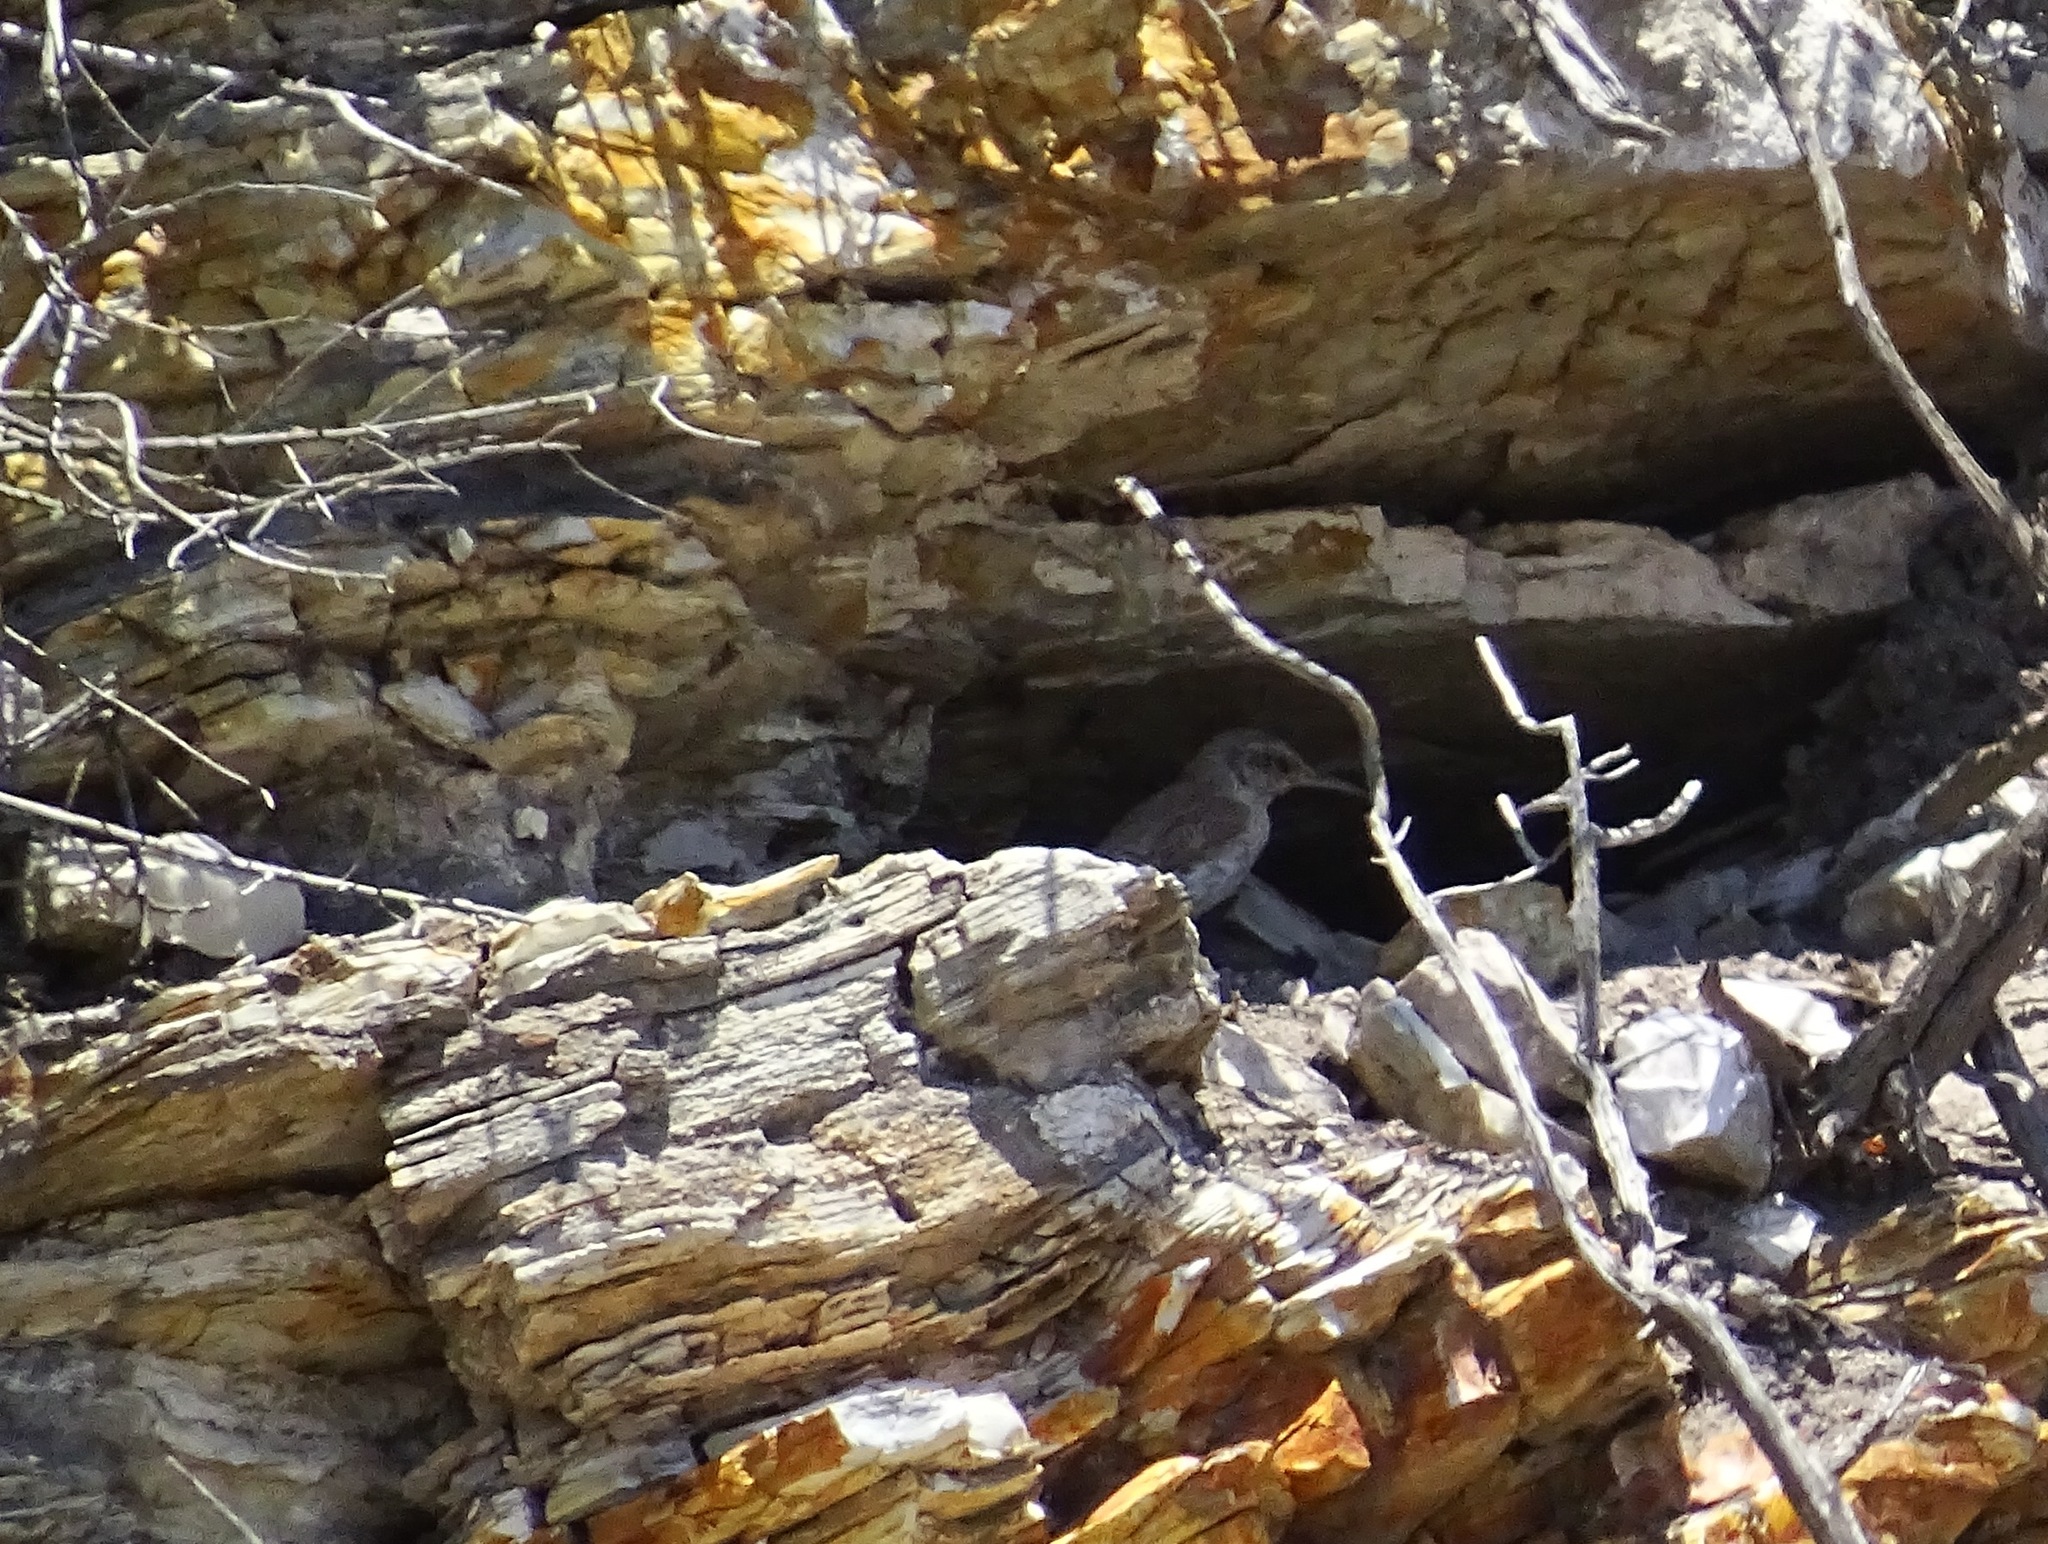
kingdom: Animalia
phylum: Chordata
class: Aves
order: Passeriformes
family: Troglodytidae
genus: Salpinctes
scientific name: Salpinctes obsoletus
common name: Rock wren
